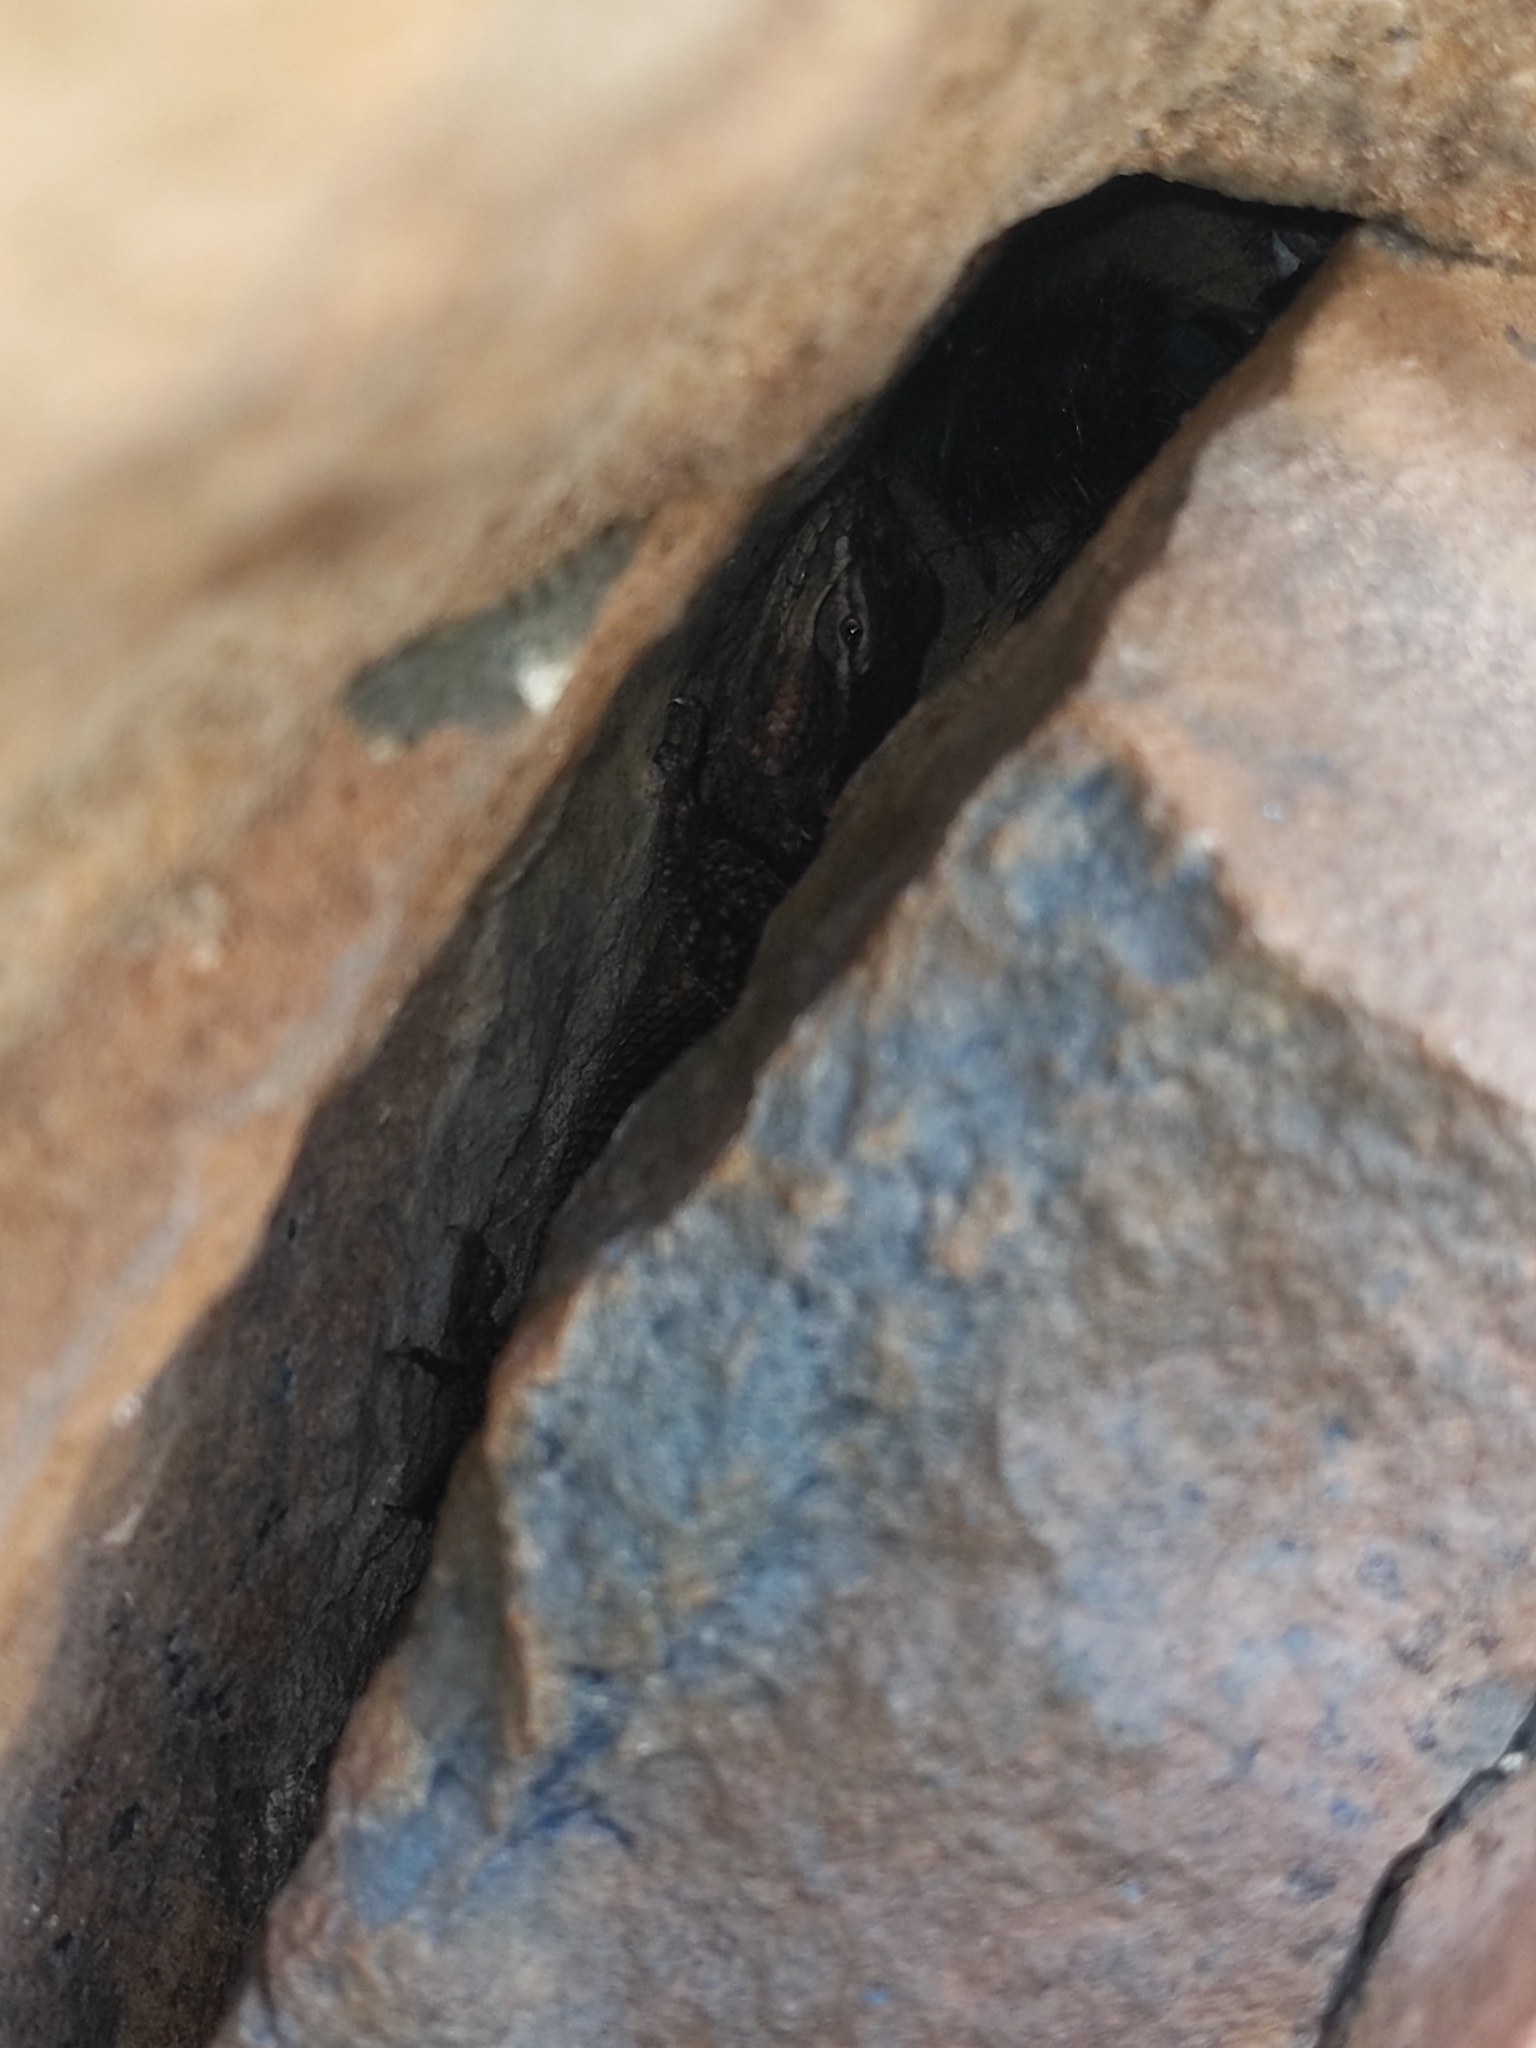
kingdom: Animalia
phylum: Chordata
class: Squamata
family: Phrynosomatidae
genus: Sceloporus
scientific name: Sceloporus jarrovii
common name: Yarrow's spiny lizard
